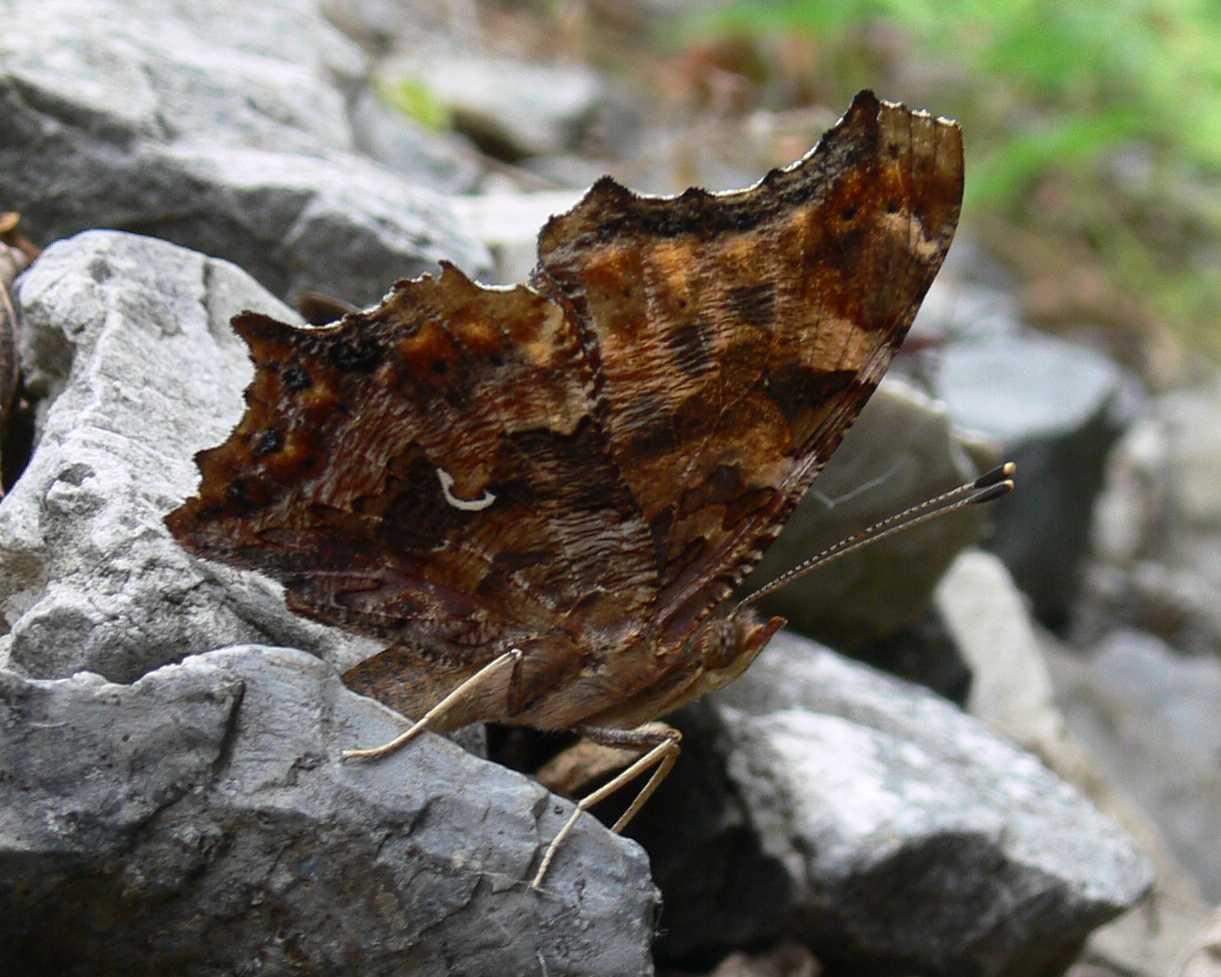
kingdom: Animalia
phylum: Arthropoda
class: Insecta
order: Lepidoptera
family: Nymphalidae
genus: Polygonia
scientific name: Polygonia comma
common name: Eastern comma
